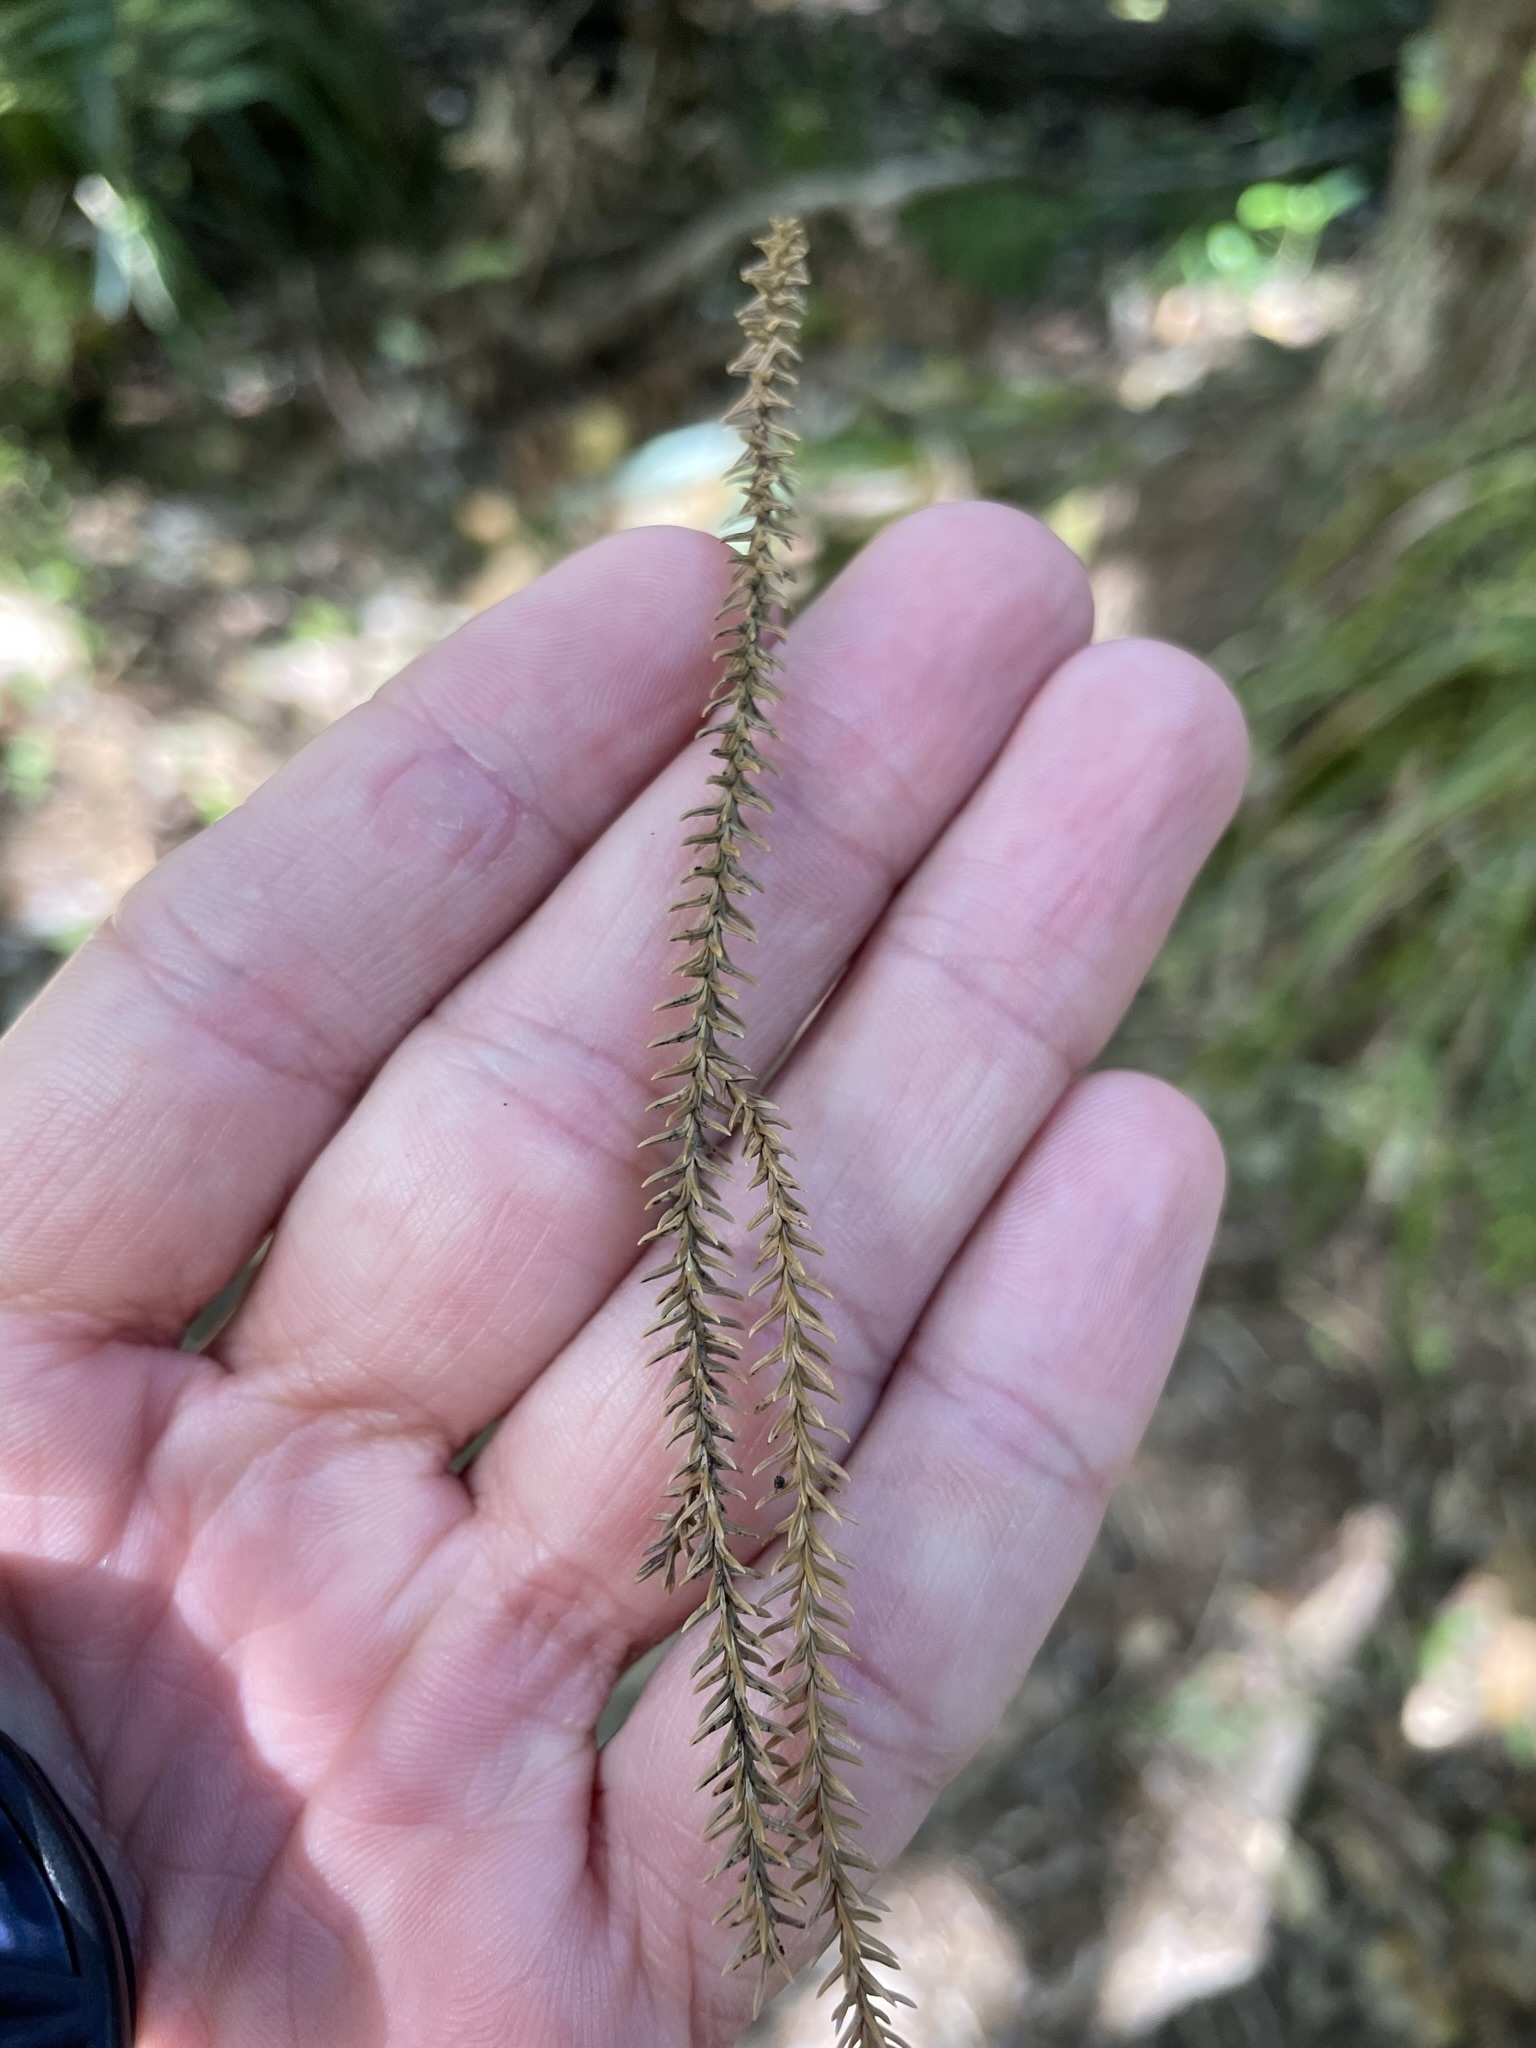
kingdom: Plantae
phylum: Tracheophyta
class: Pinopsida
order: Pinales
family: Podocarpaceae
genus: Dacrydium
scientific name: Dacrydium cupressinum
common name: Red pine
